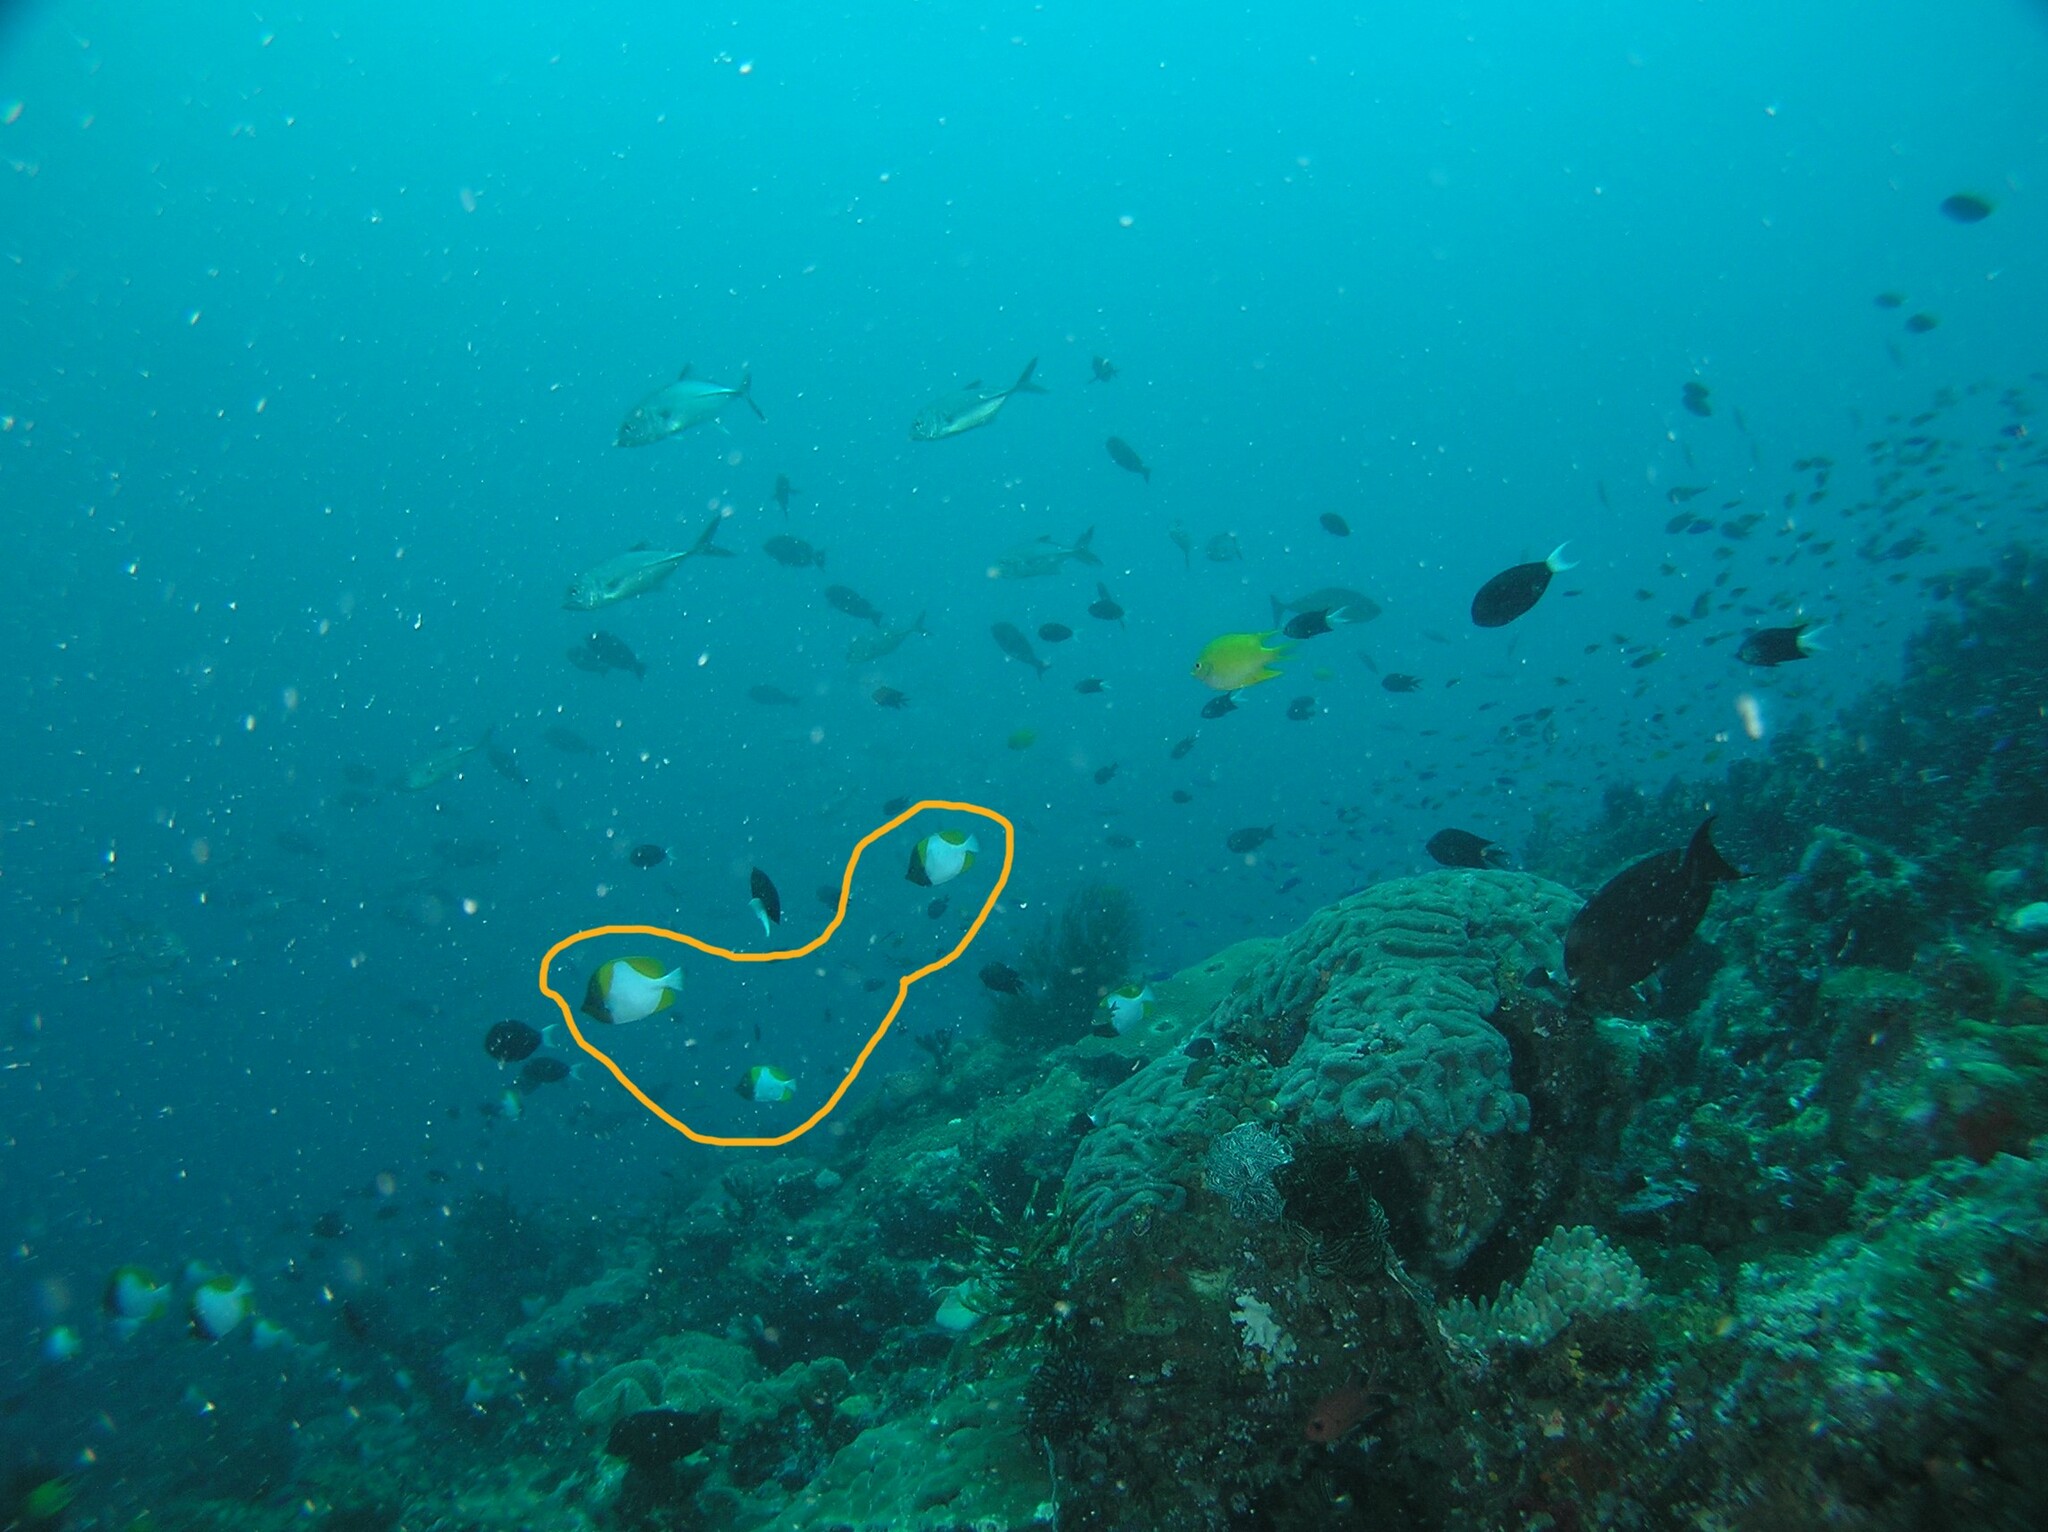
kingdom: Animalia
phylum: Chordata
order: Perciformes
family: Chaetodontidae
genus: Hemitaurichthys
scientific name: Hemitaurichthys polylepis
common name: Brushytoothed butterflyfish
